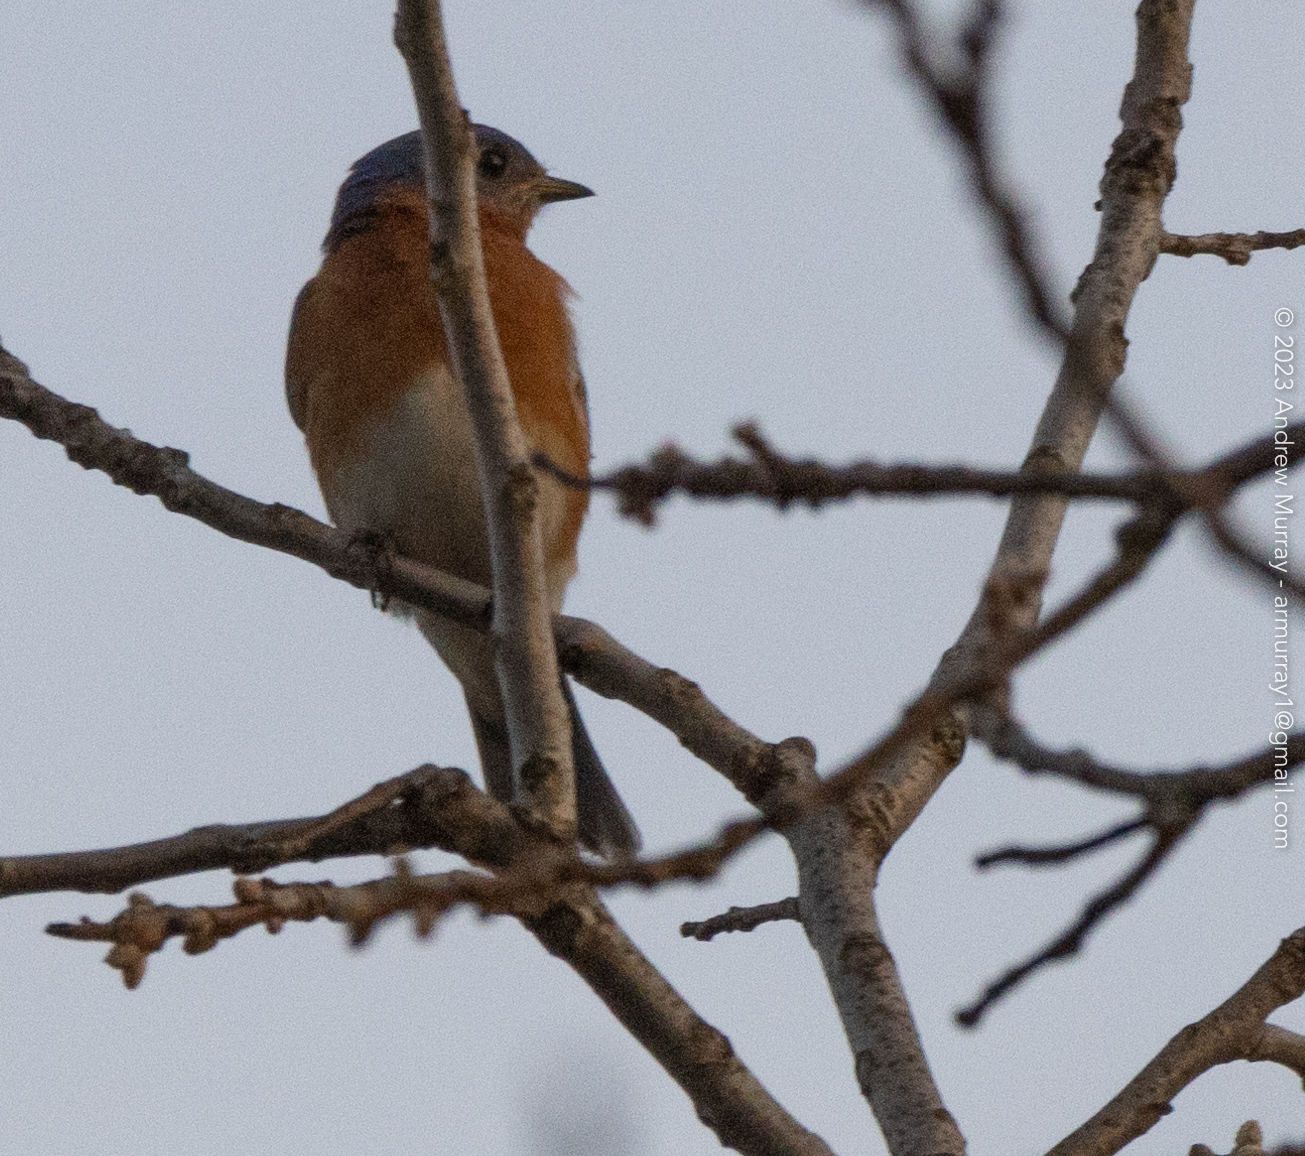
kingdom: Animalia
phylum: Chordata
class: Aves
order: Passeriformes
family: Turdidae
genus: Sialia
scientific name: Sialia sialis
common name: Eastern bluebird
